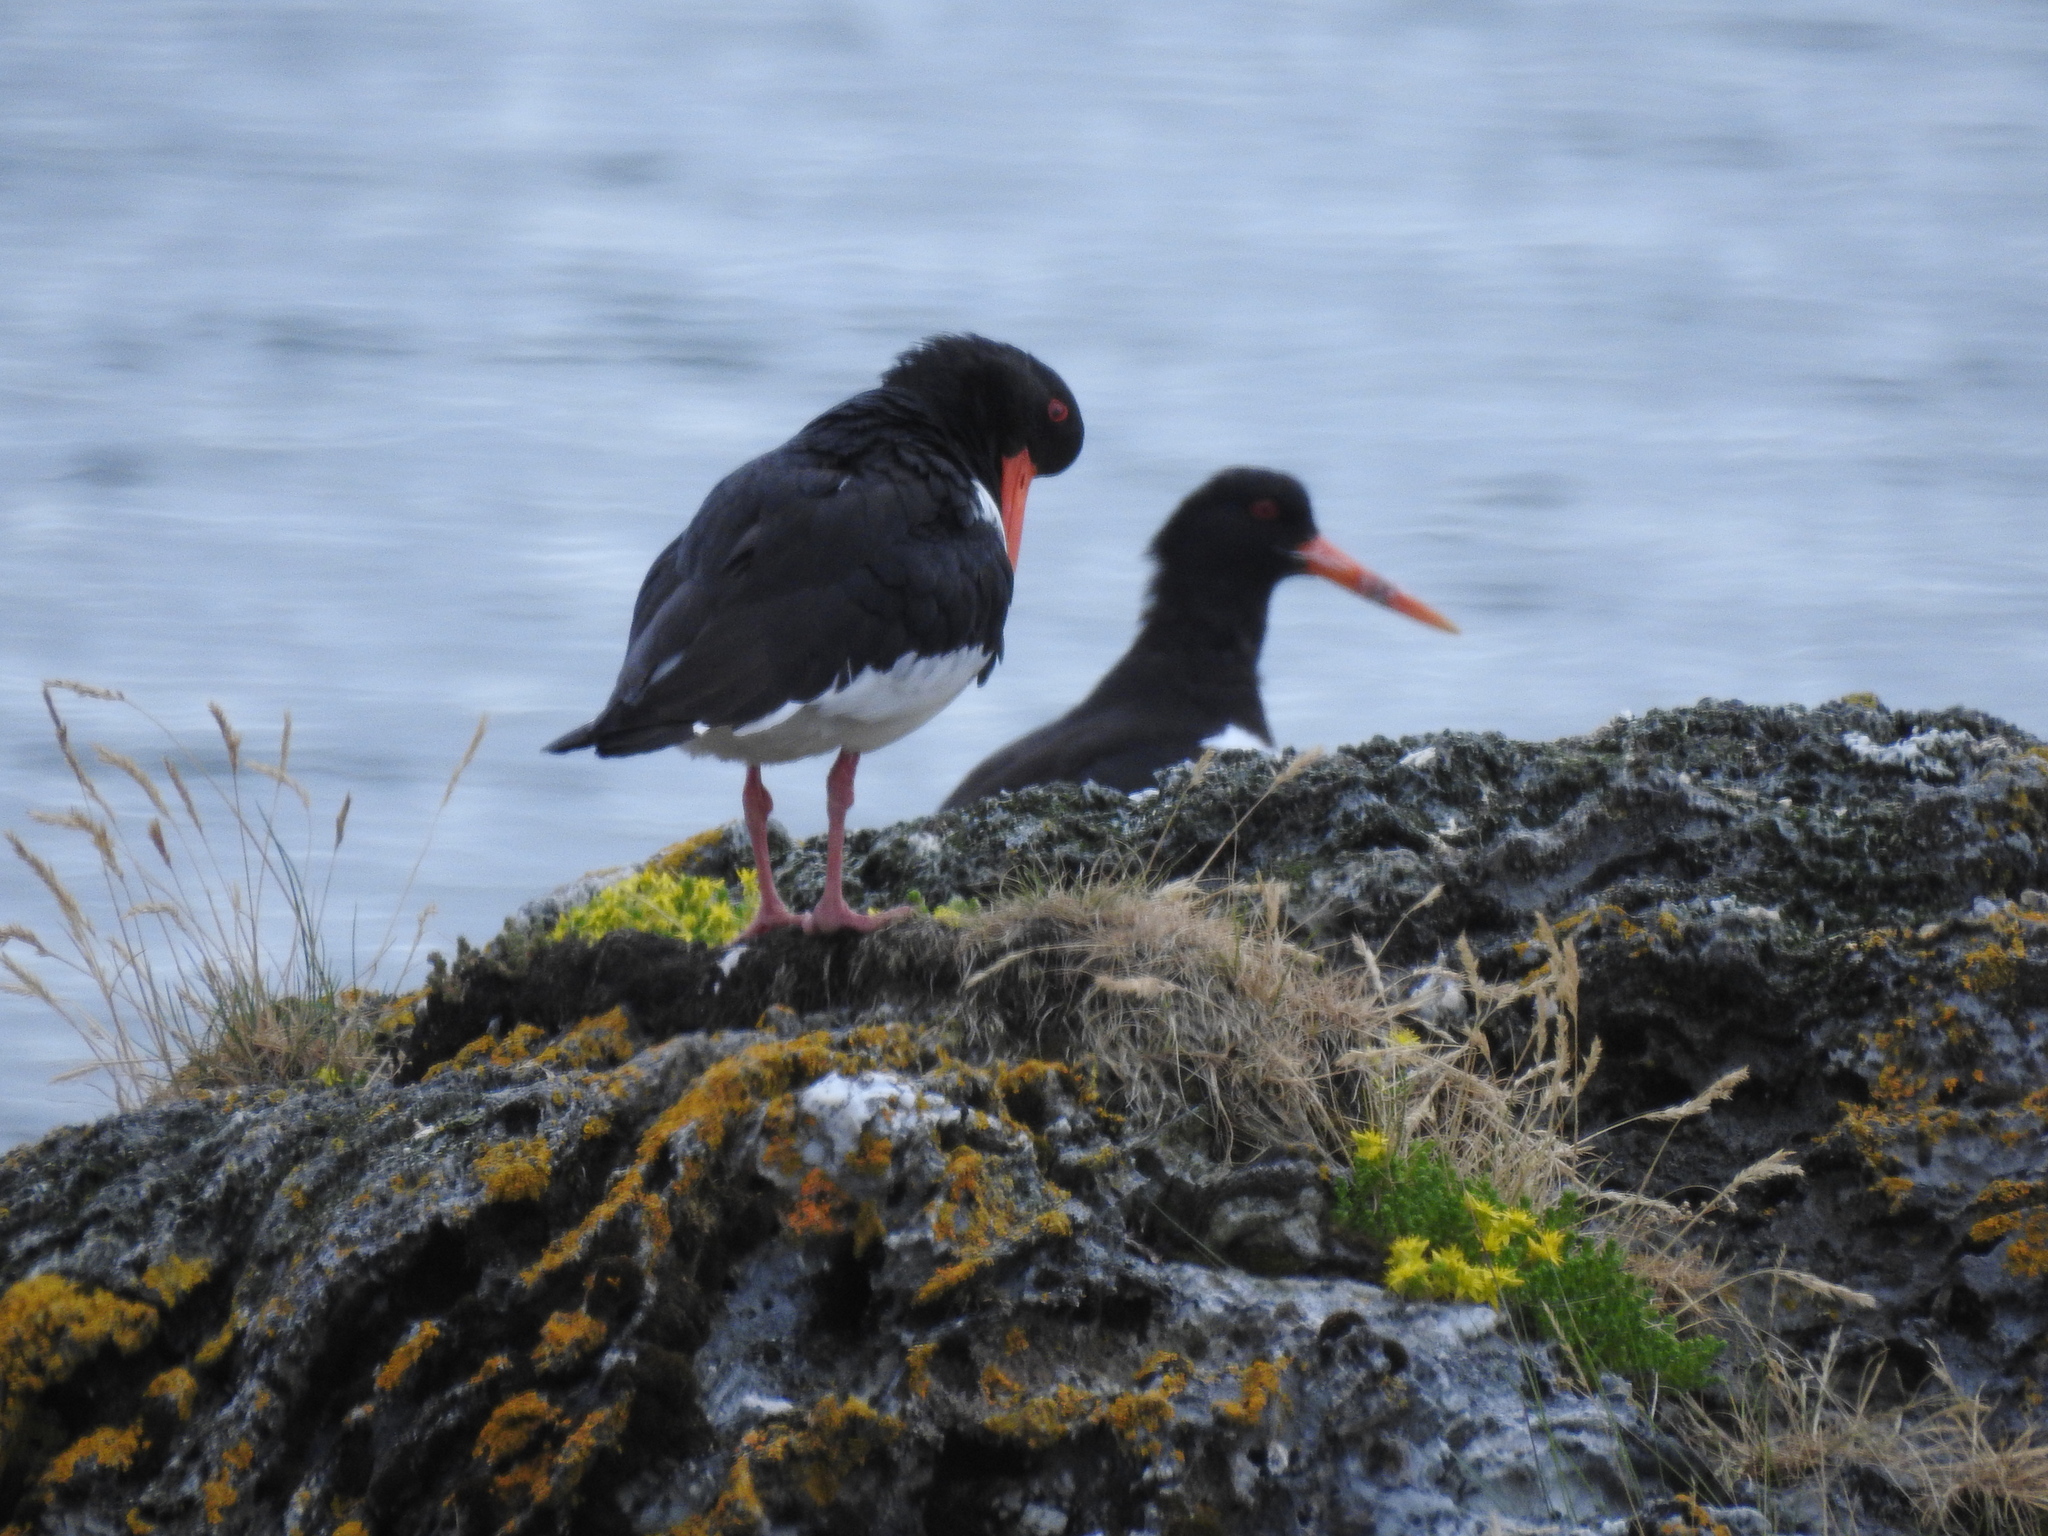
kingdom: Animalia
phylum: Chordata
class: Aves
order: Charadriiformes
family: Haematopodidae
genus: Haematopus
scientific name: Haematopus ostralegus
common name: Eurasian oystercatcher
